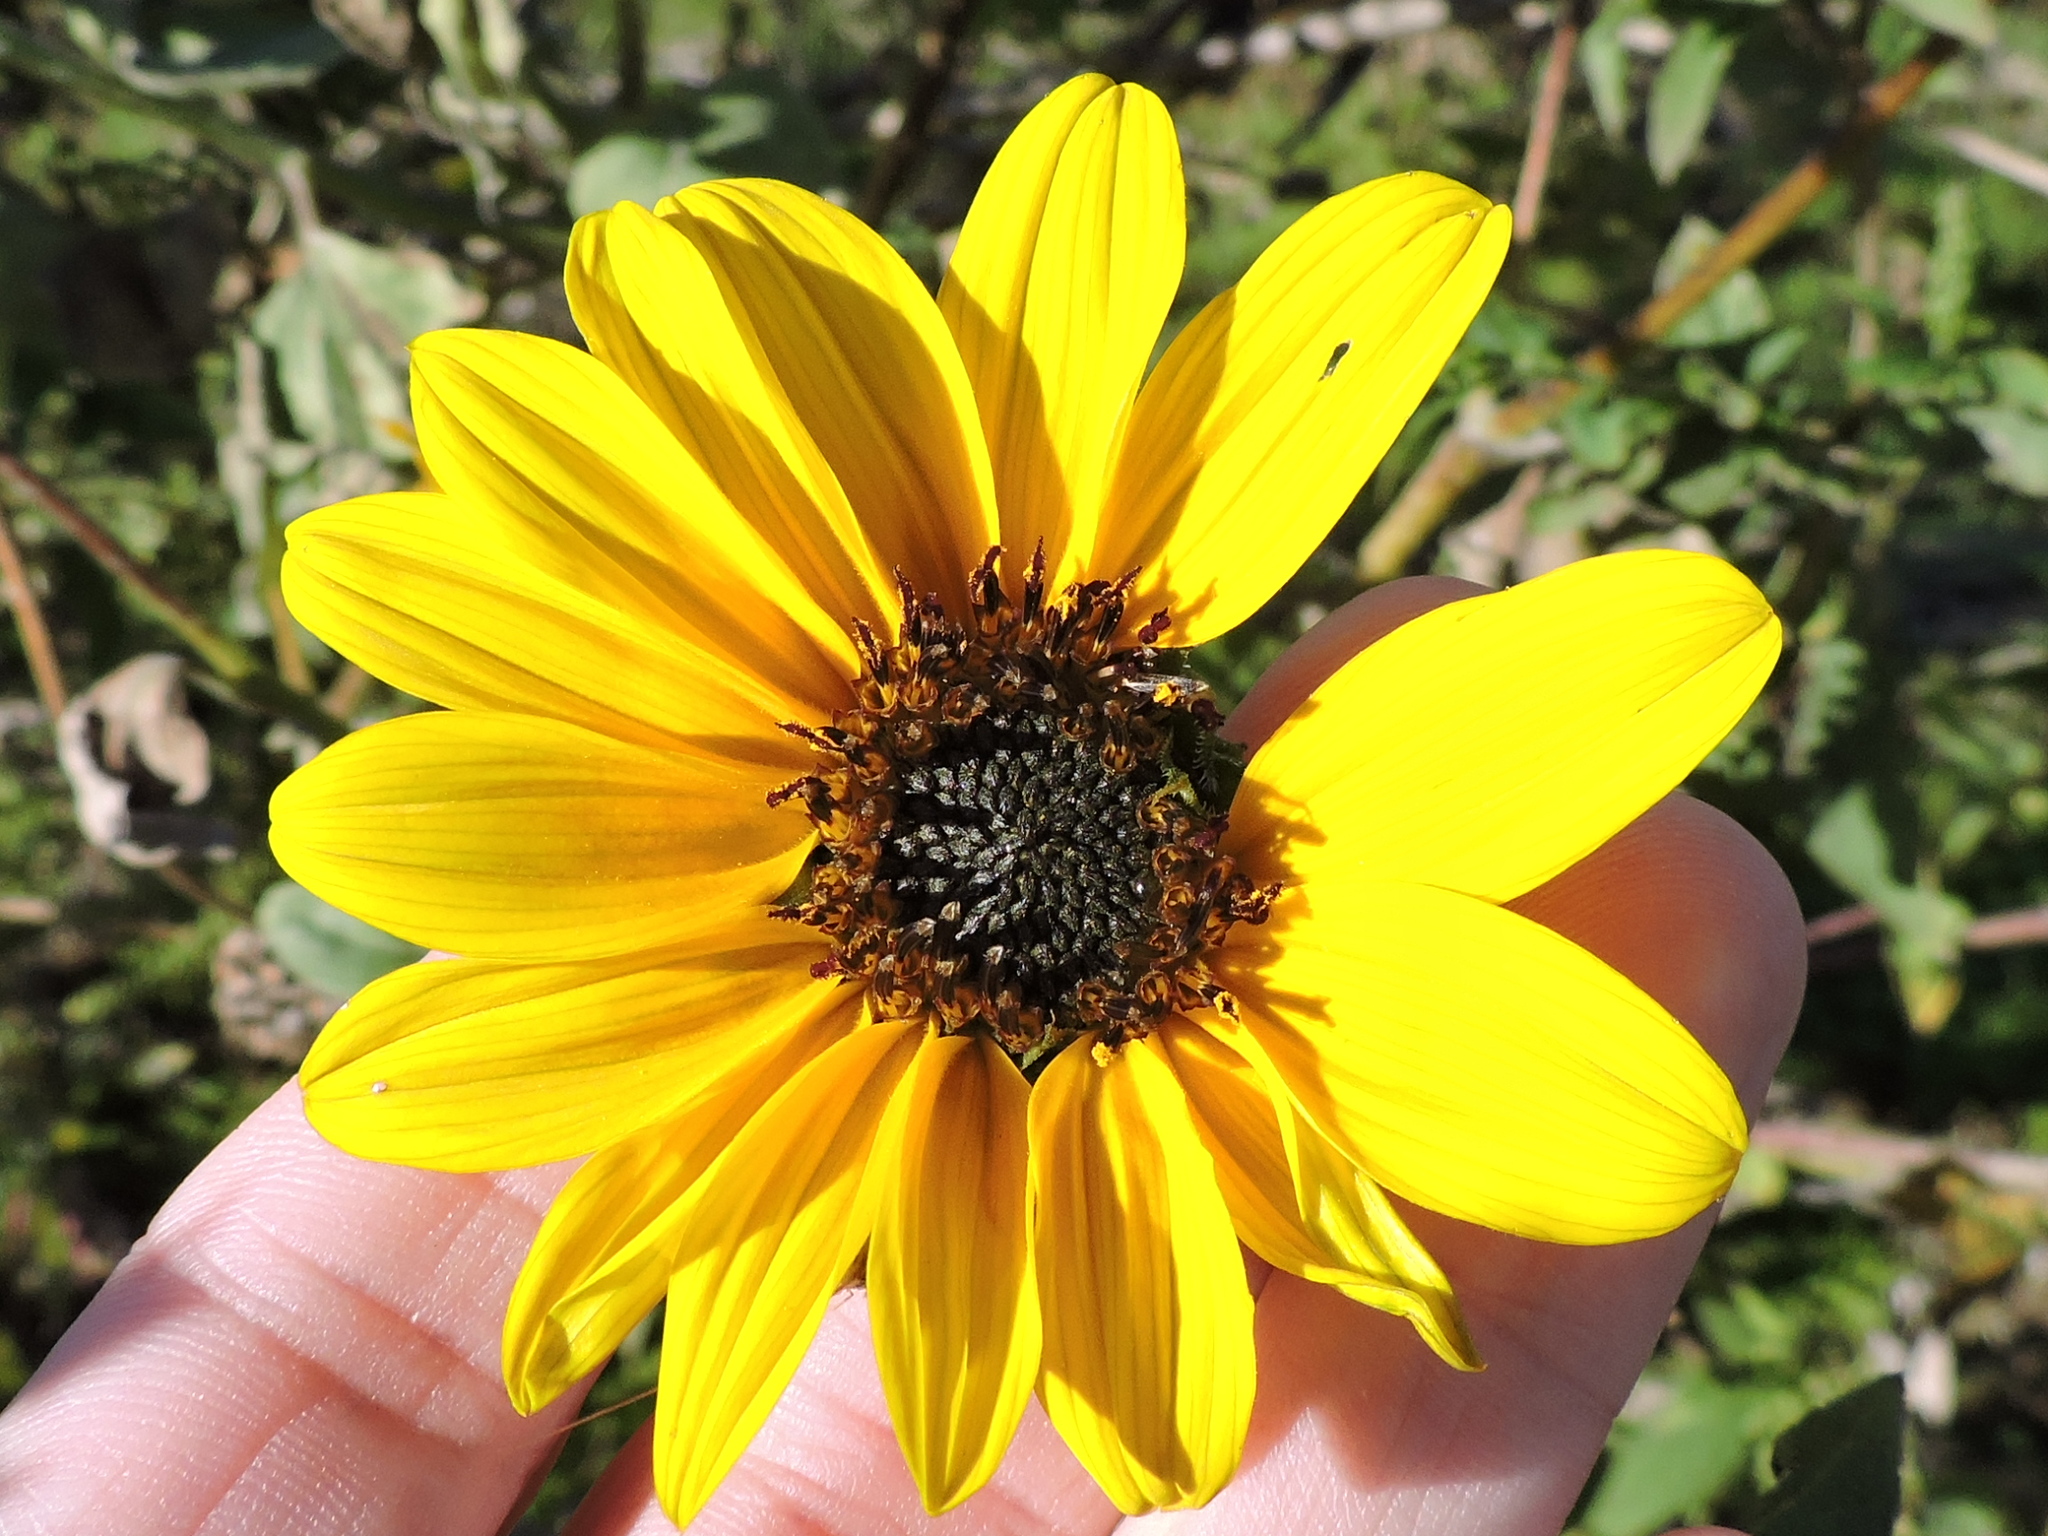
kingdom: Plantae
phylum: Tracheophyta
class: Magnoliopsida
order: Asterales
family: Asteraceae
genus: Helianthus
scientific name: Helianthus annuus
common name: Sunflower
